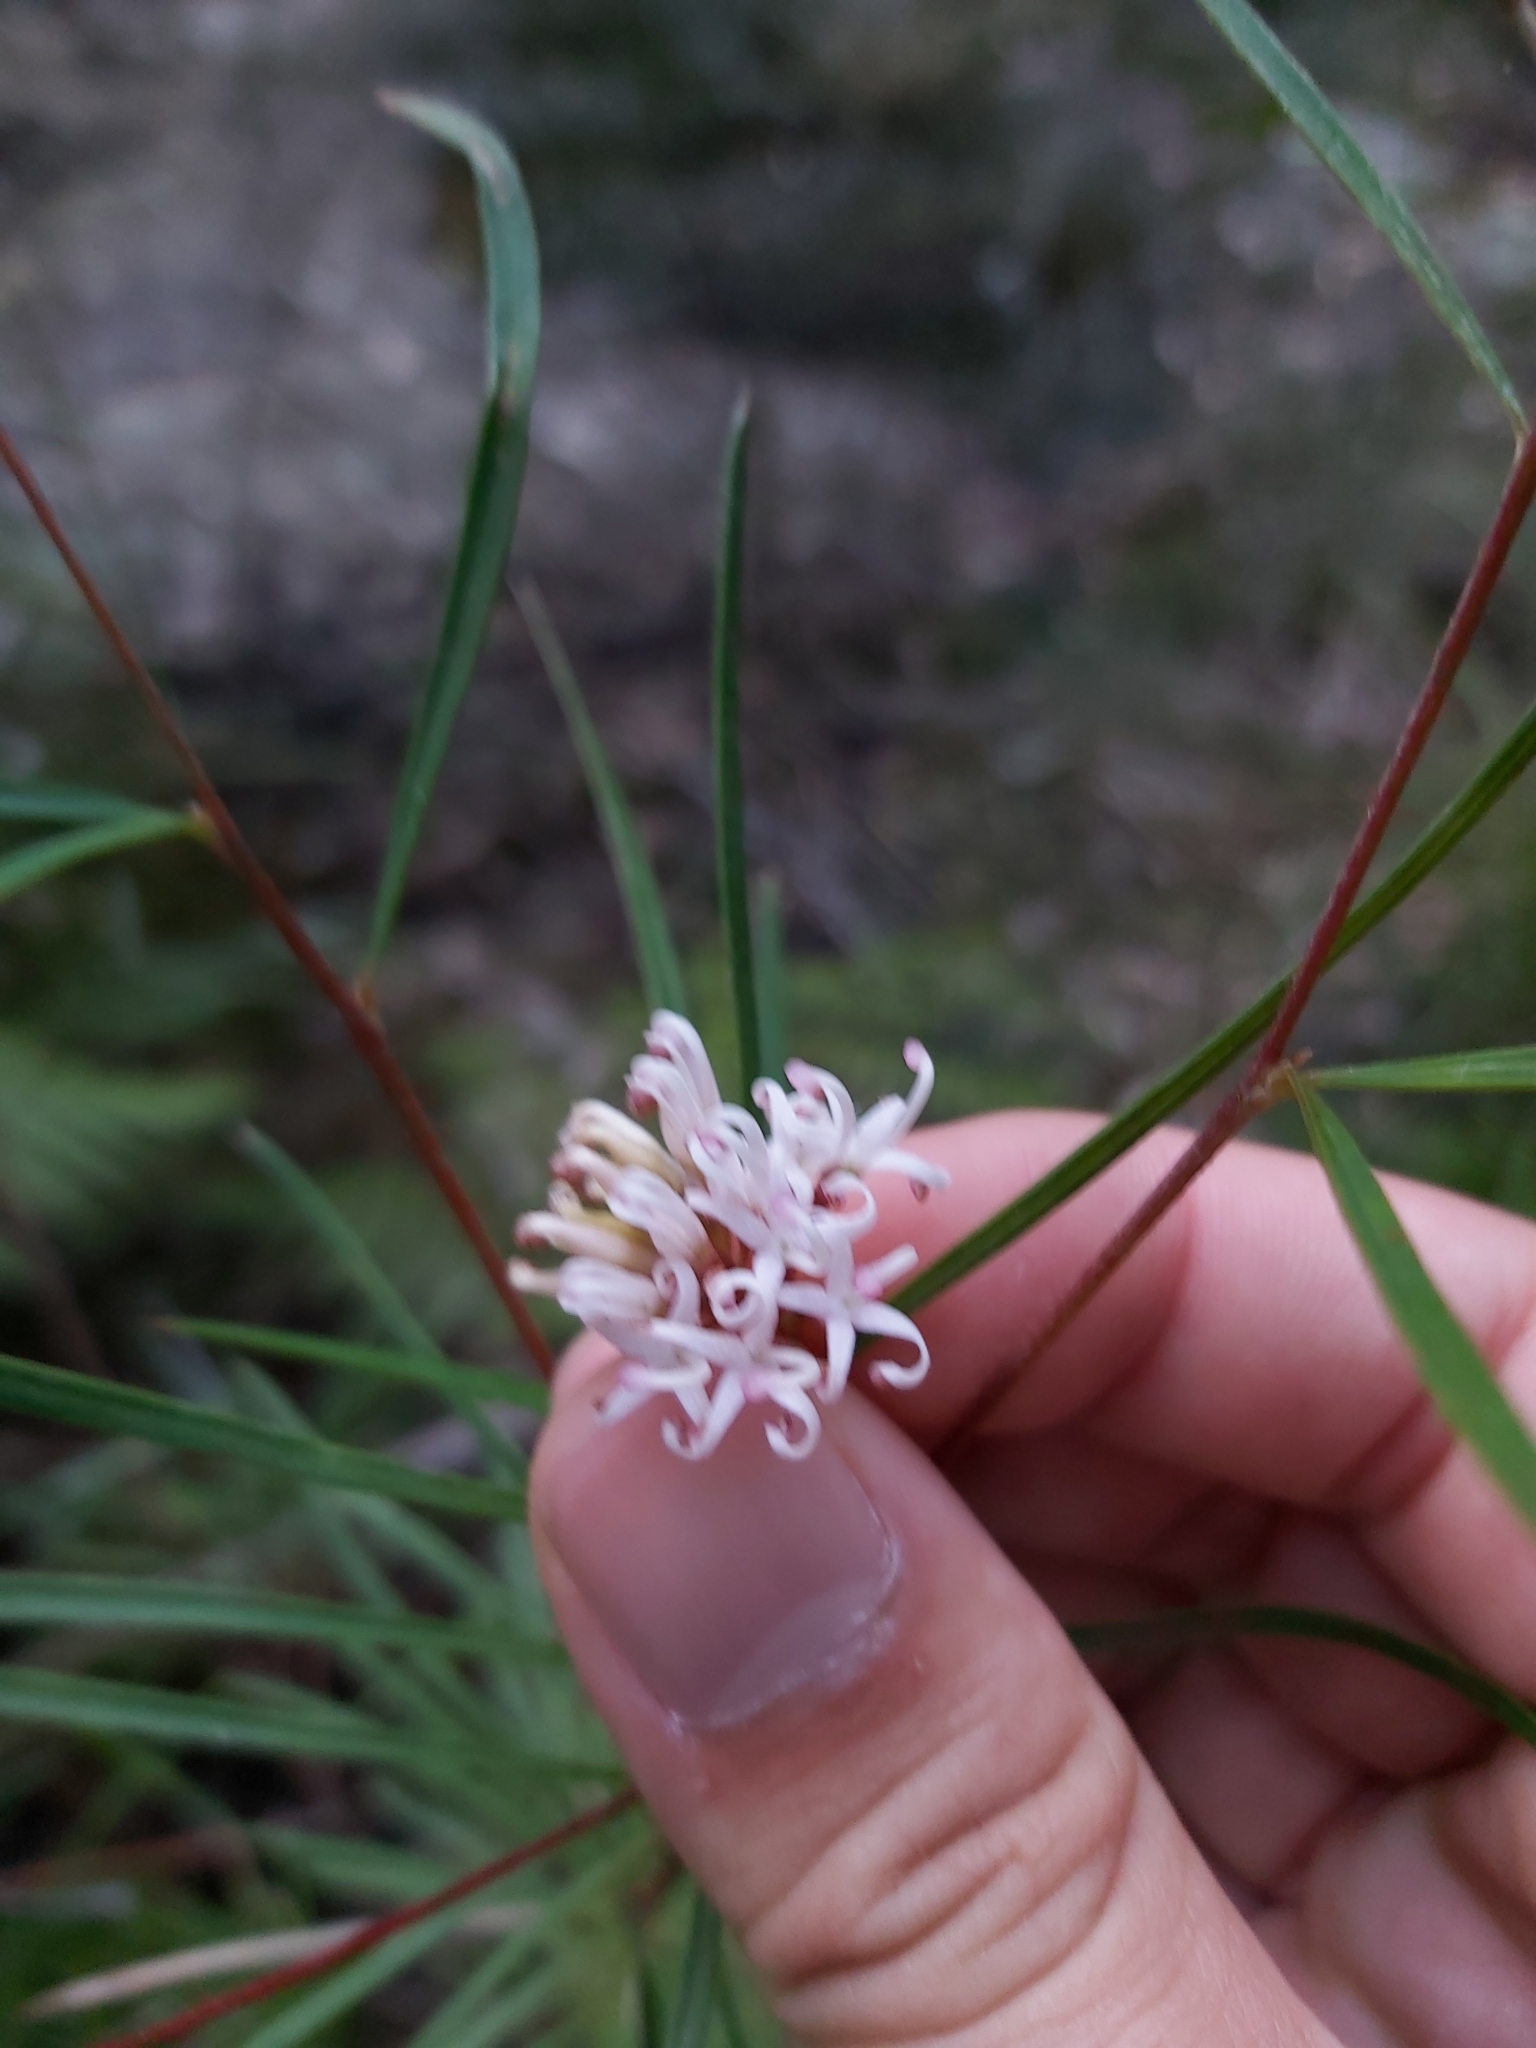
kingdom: Plantae
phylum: Tracheophyta
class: Magnoliopsida
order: Proteales
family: Proteaceae
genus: Grevillea
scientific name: Grevillea linearifolia
